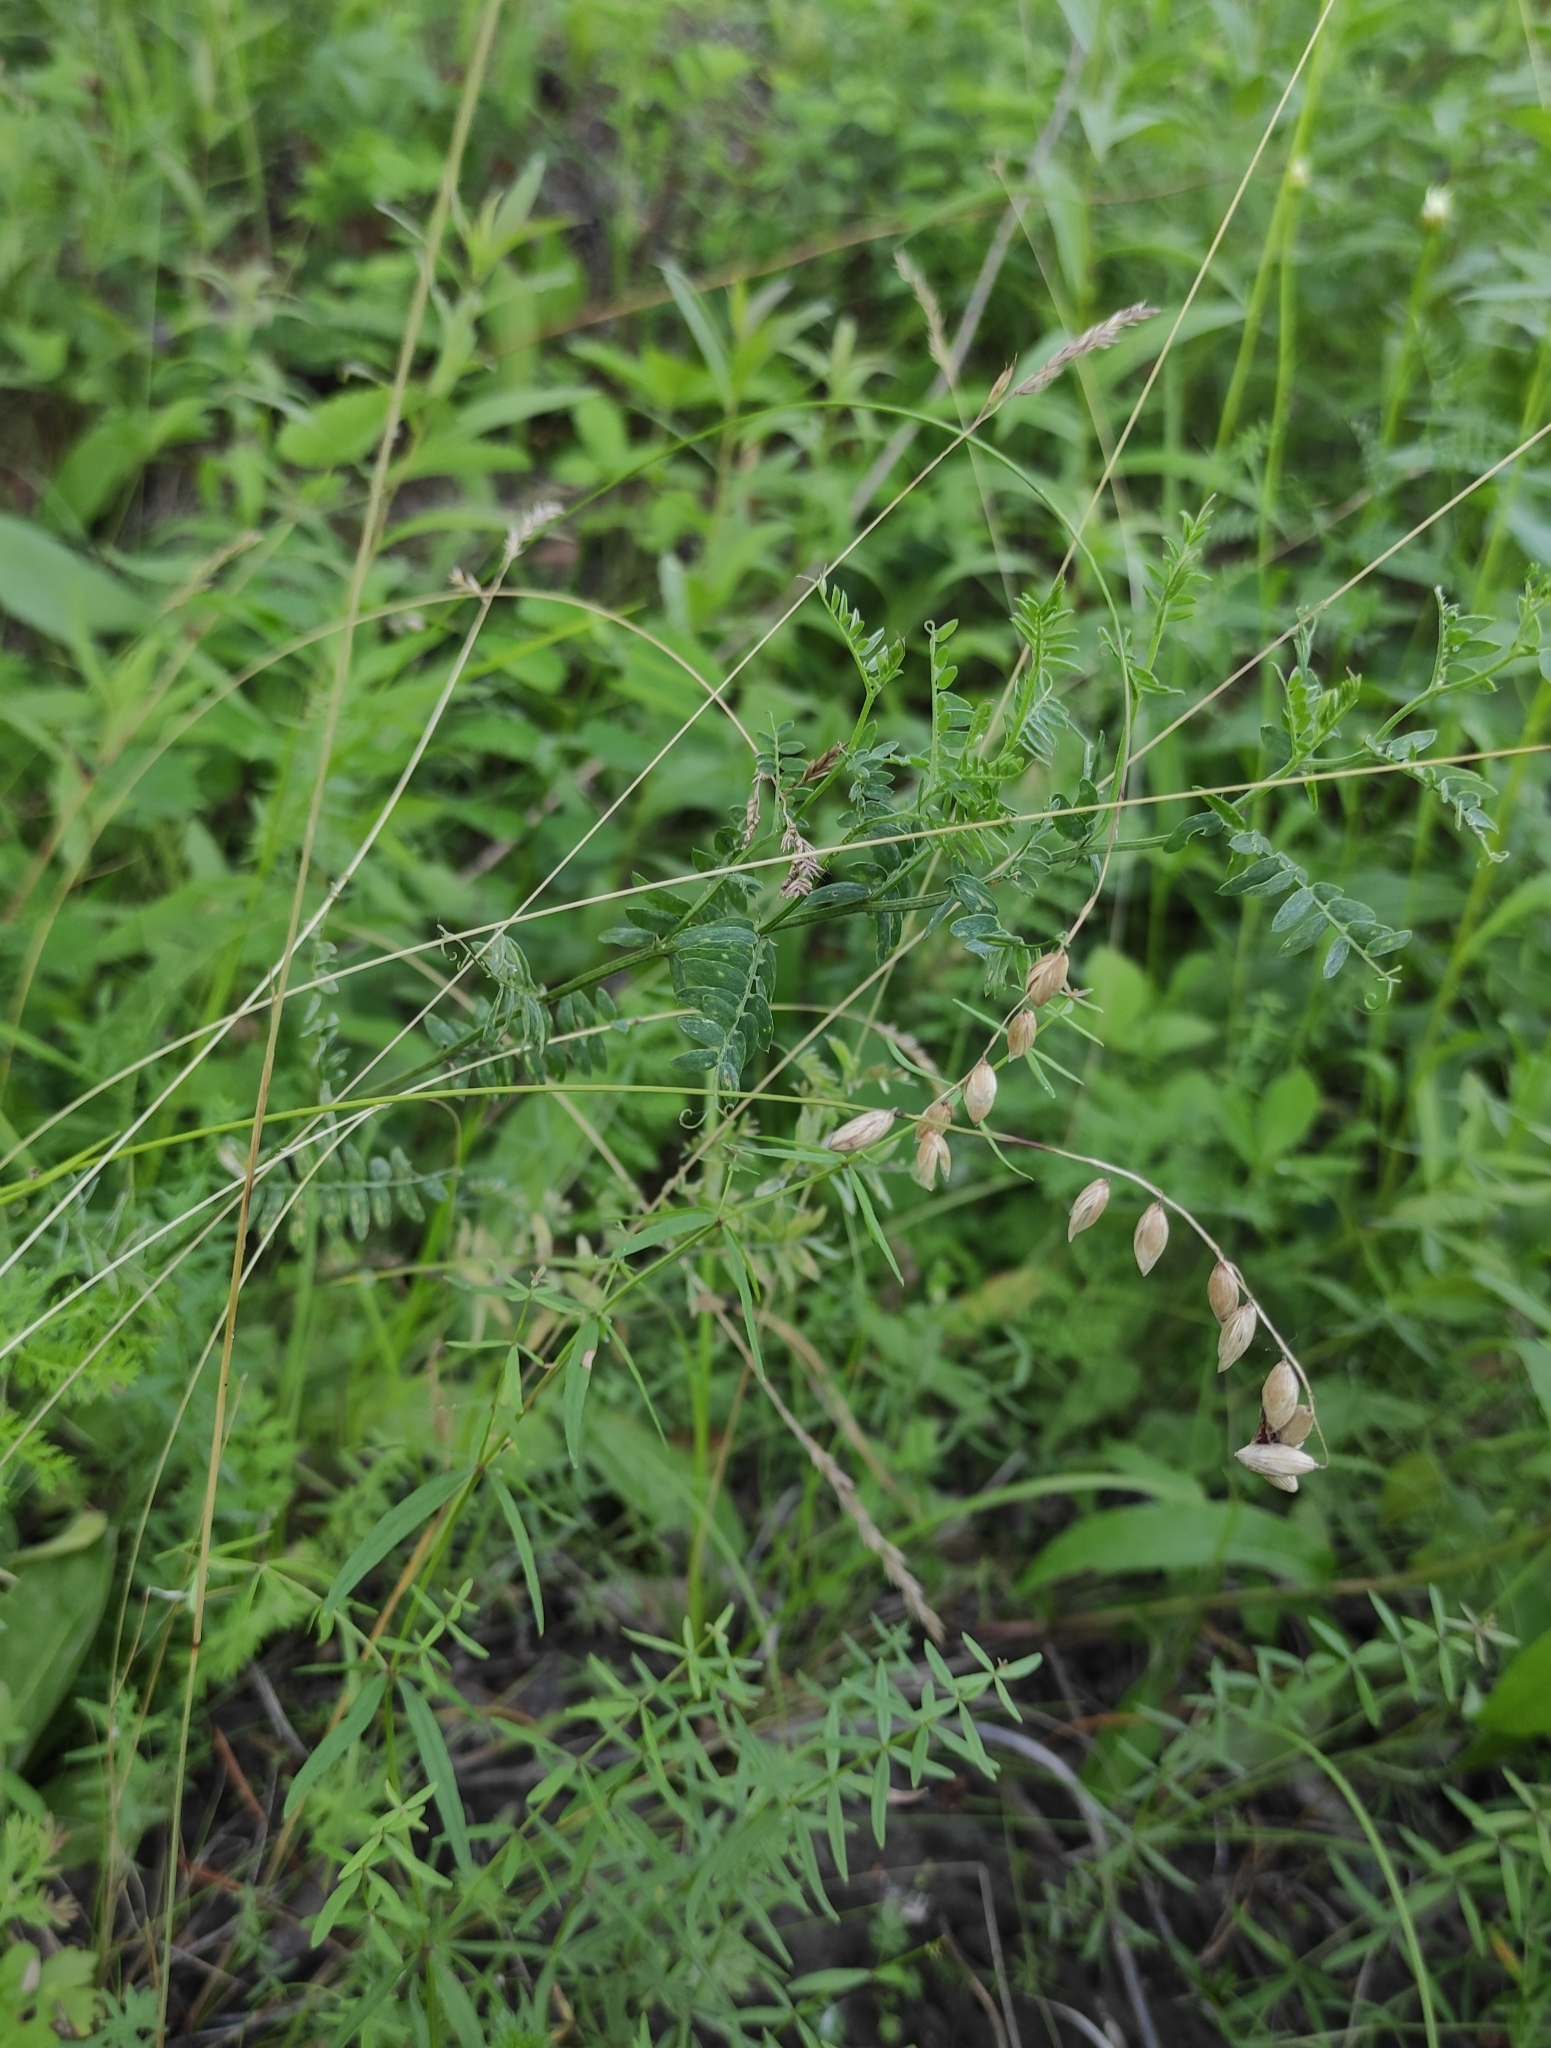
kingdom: Plantae
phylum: Tracheophyta
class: Liliopsida
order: Poales
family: Poaceae
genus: Melica
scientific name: Melica nutans
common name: Mountain melick
